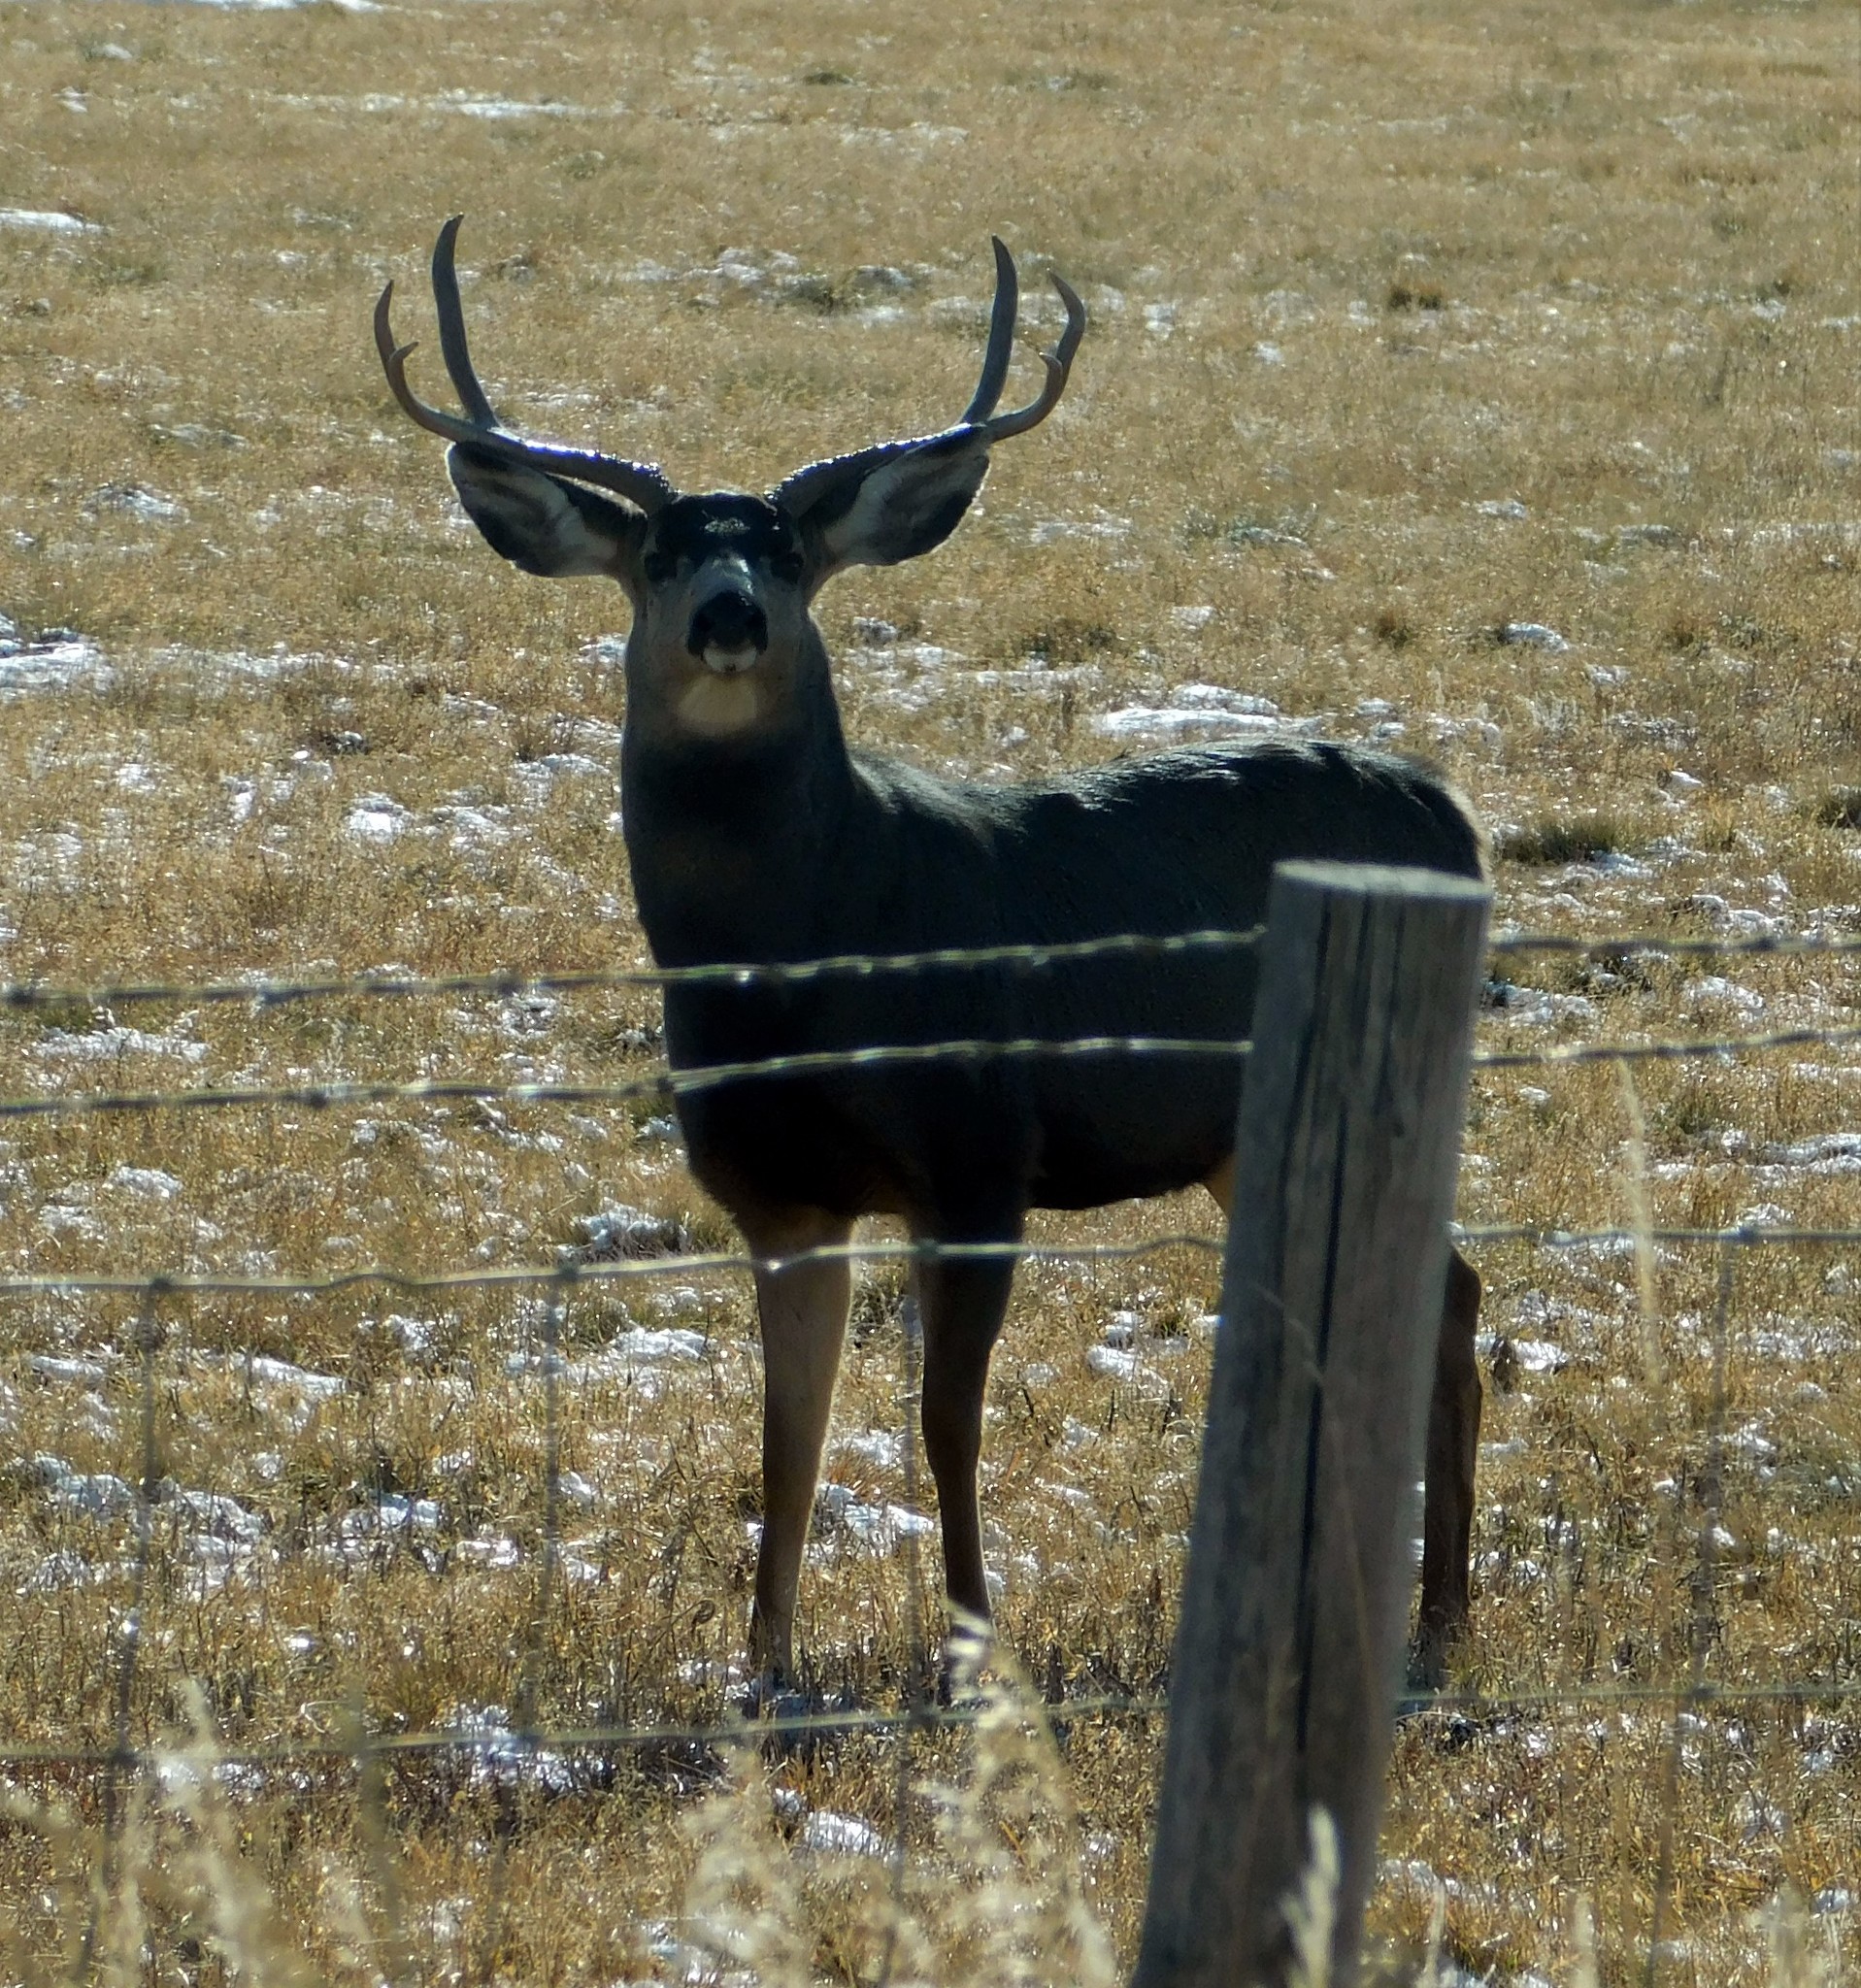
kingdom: Animalia
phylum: Chordata
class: Mammalia
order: Artiodactyla
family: Cervidae
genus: Odocoileus
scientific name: Odocoileus hemionus
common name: Mule deer
